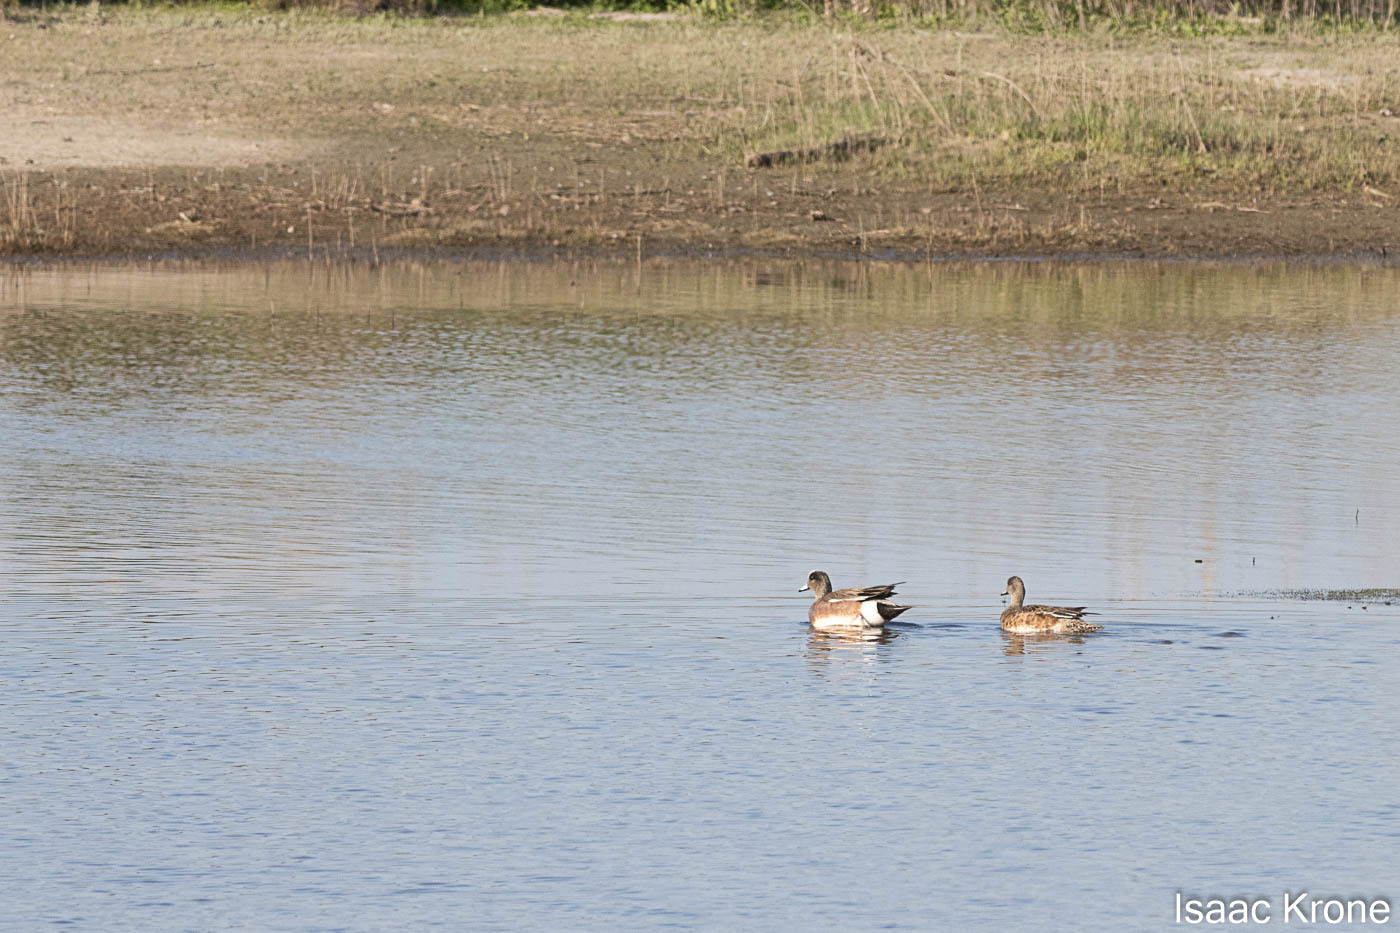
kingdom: Animalia
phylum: Chordata
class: Aves
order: Anseriformes
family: Anatidae
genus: Mareca
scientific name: Mareca americana
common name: American wigeon
